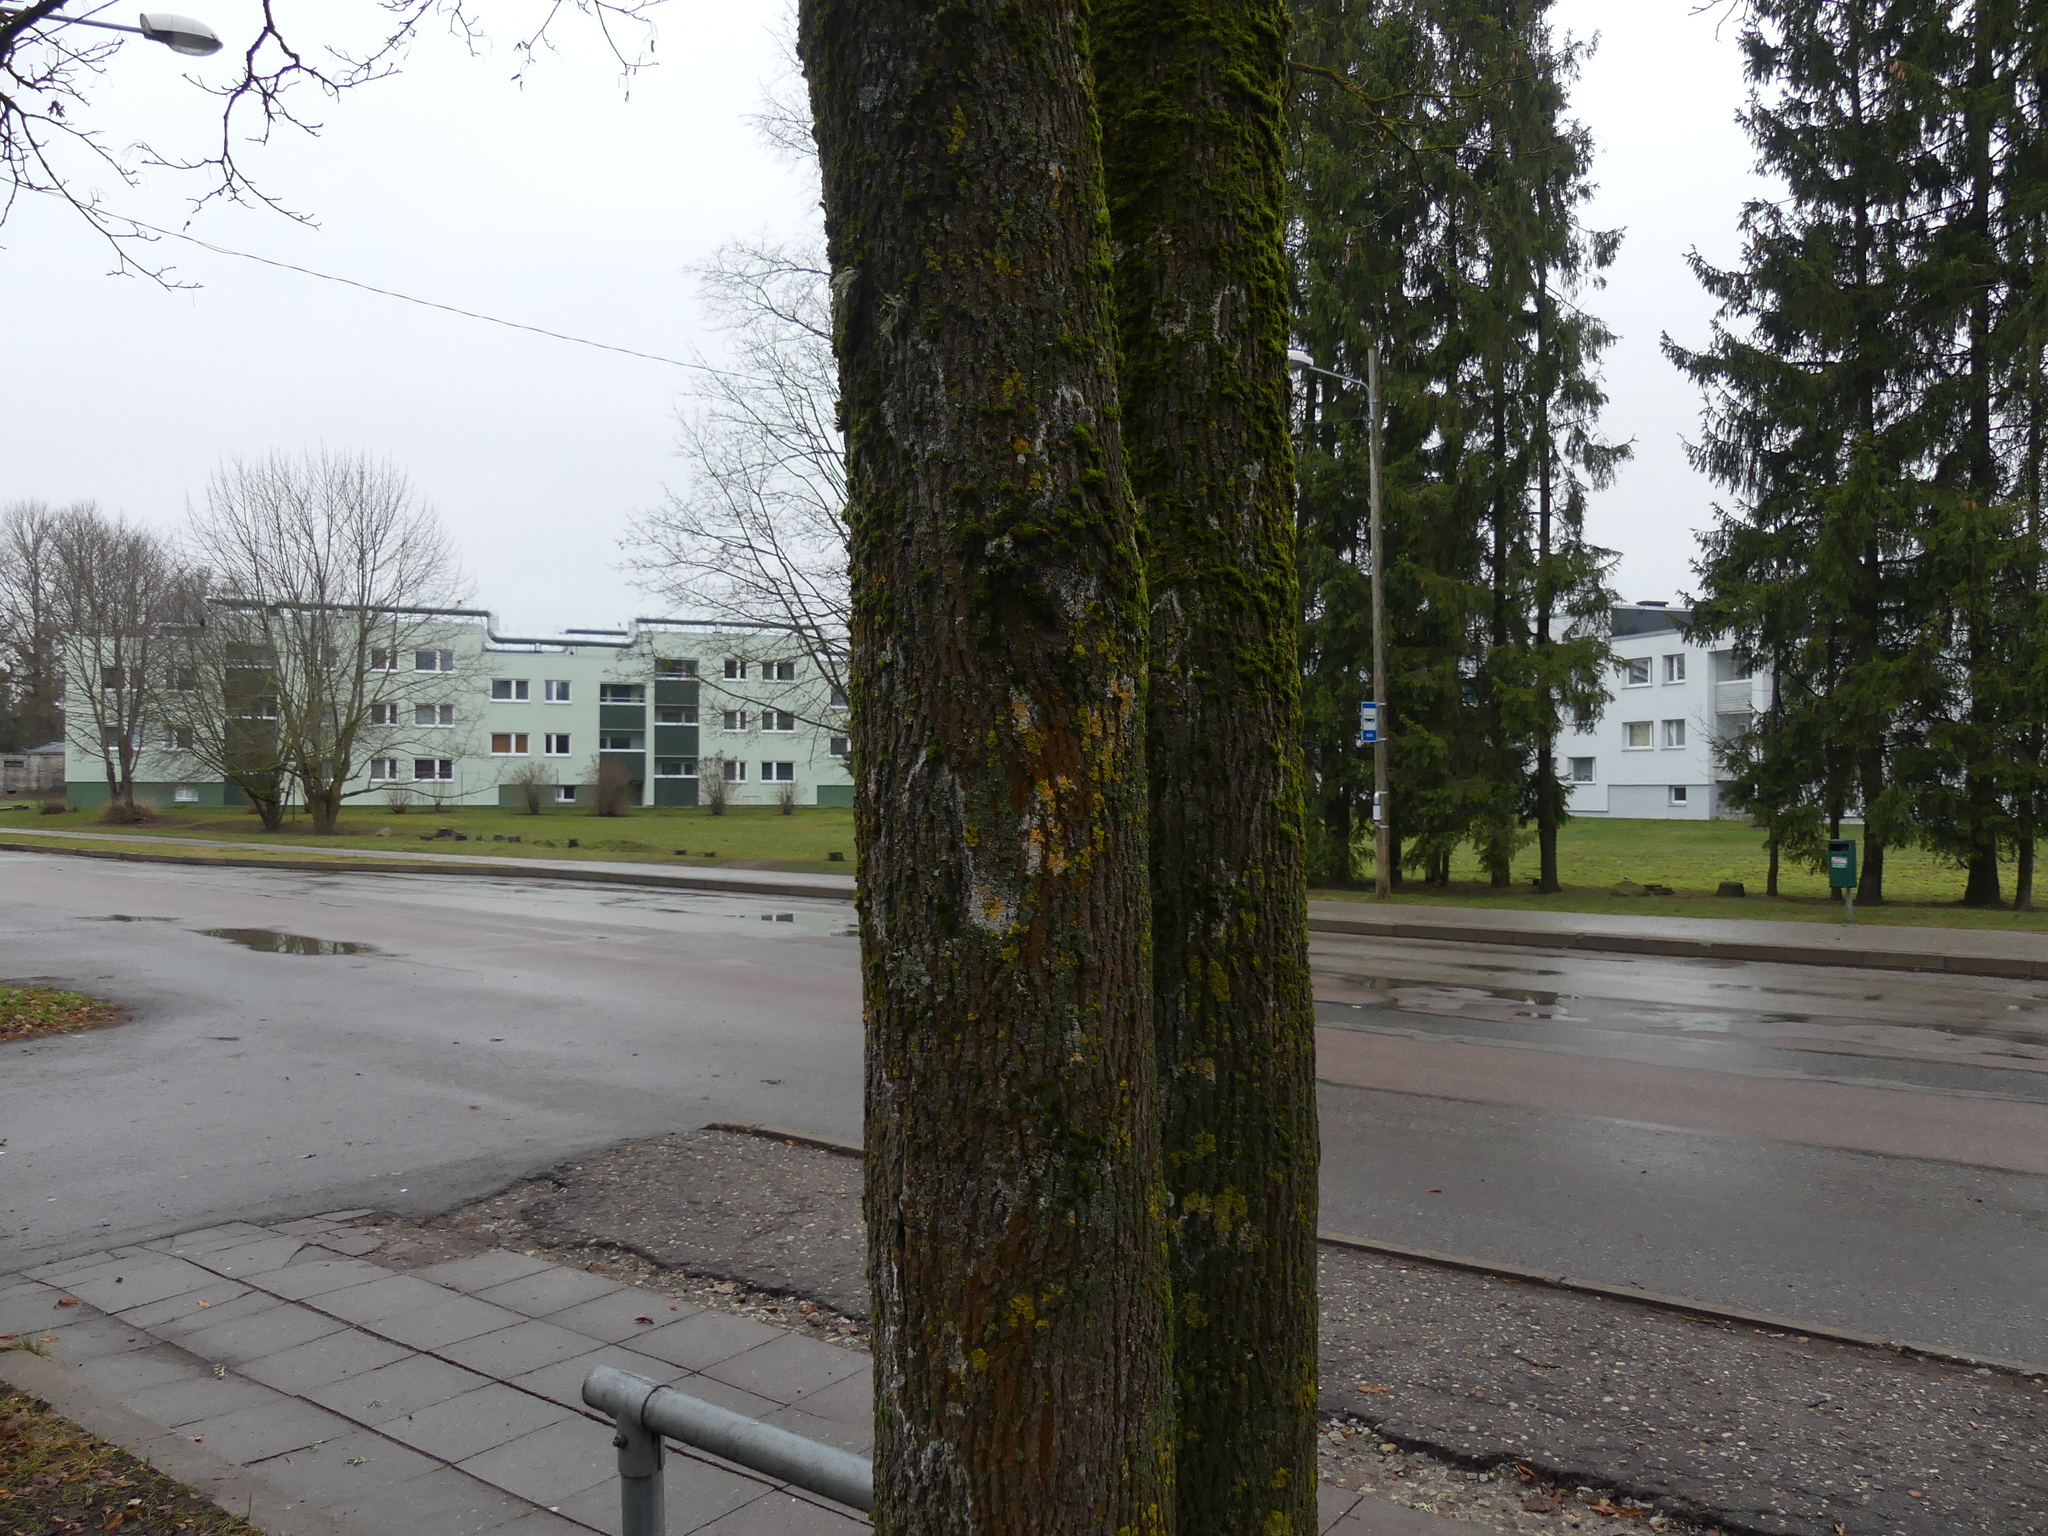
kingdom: Fungi
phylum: Basidiomycota
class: Agaricomycetes
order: Atheliales
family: Atheliaceae
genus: Athelia
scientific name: Athelia arachnoidea
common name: Candelabra duster
